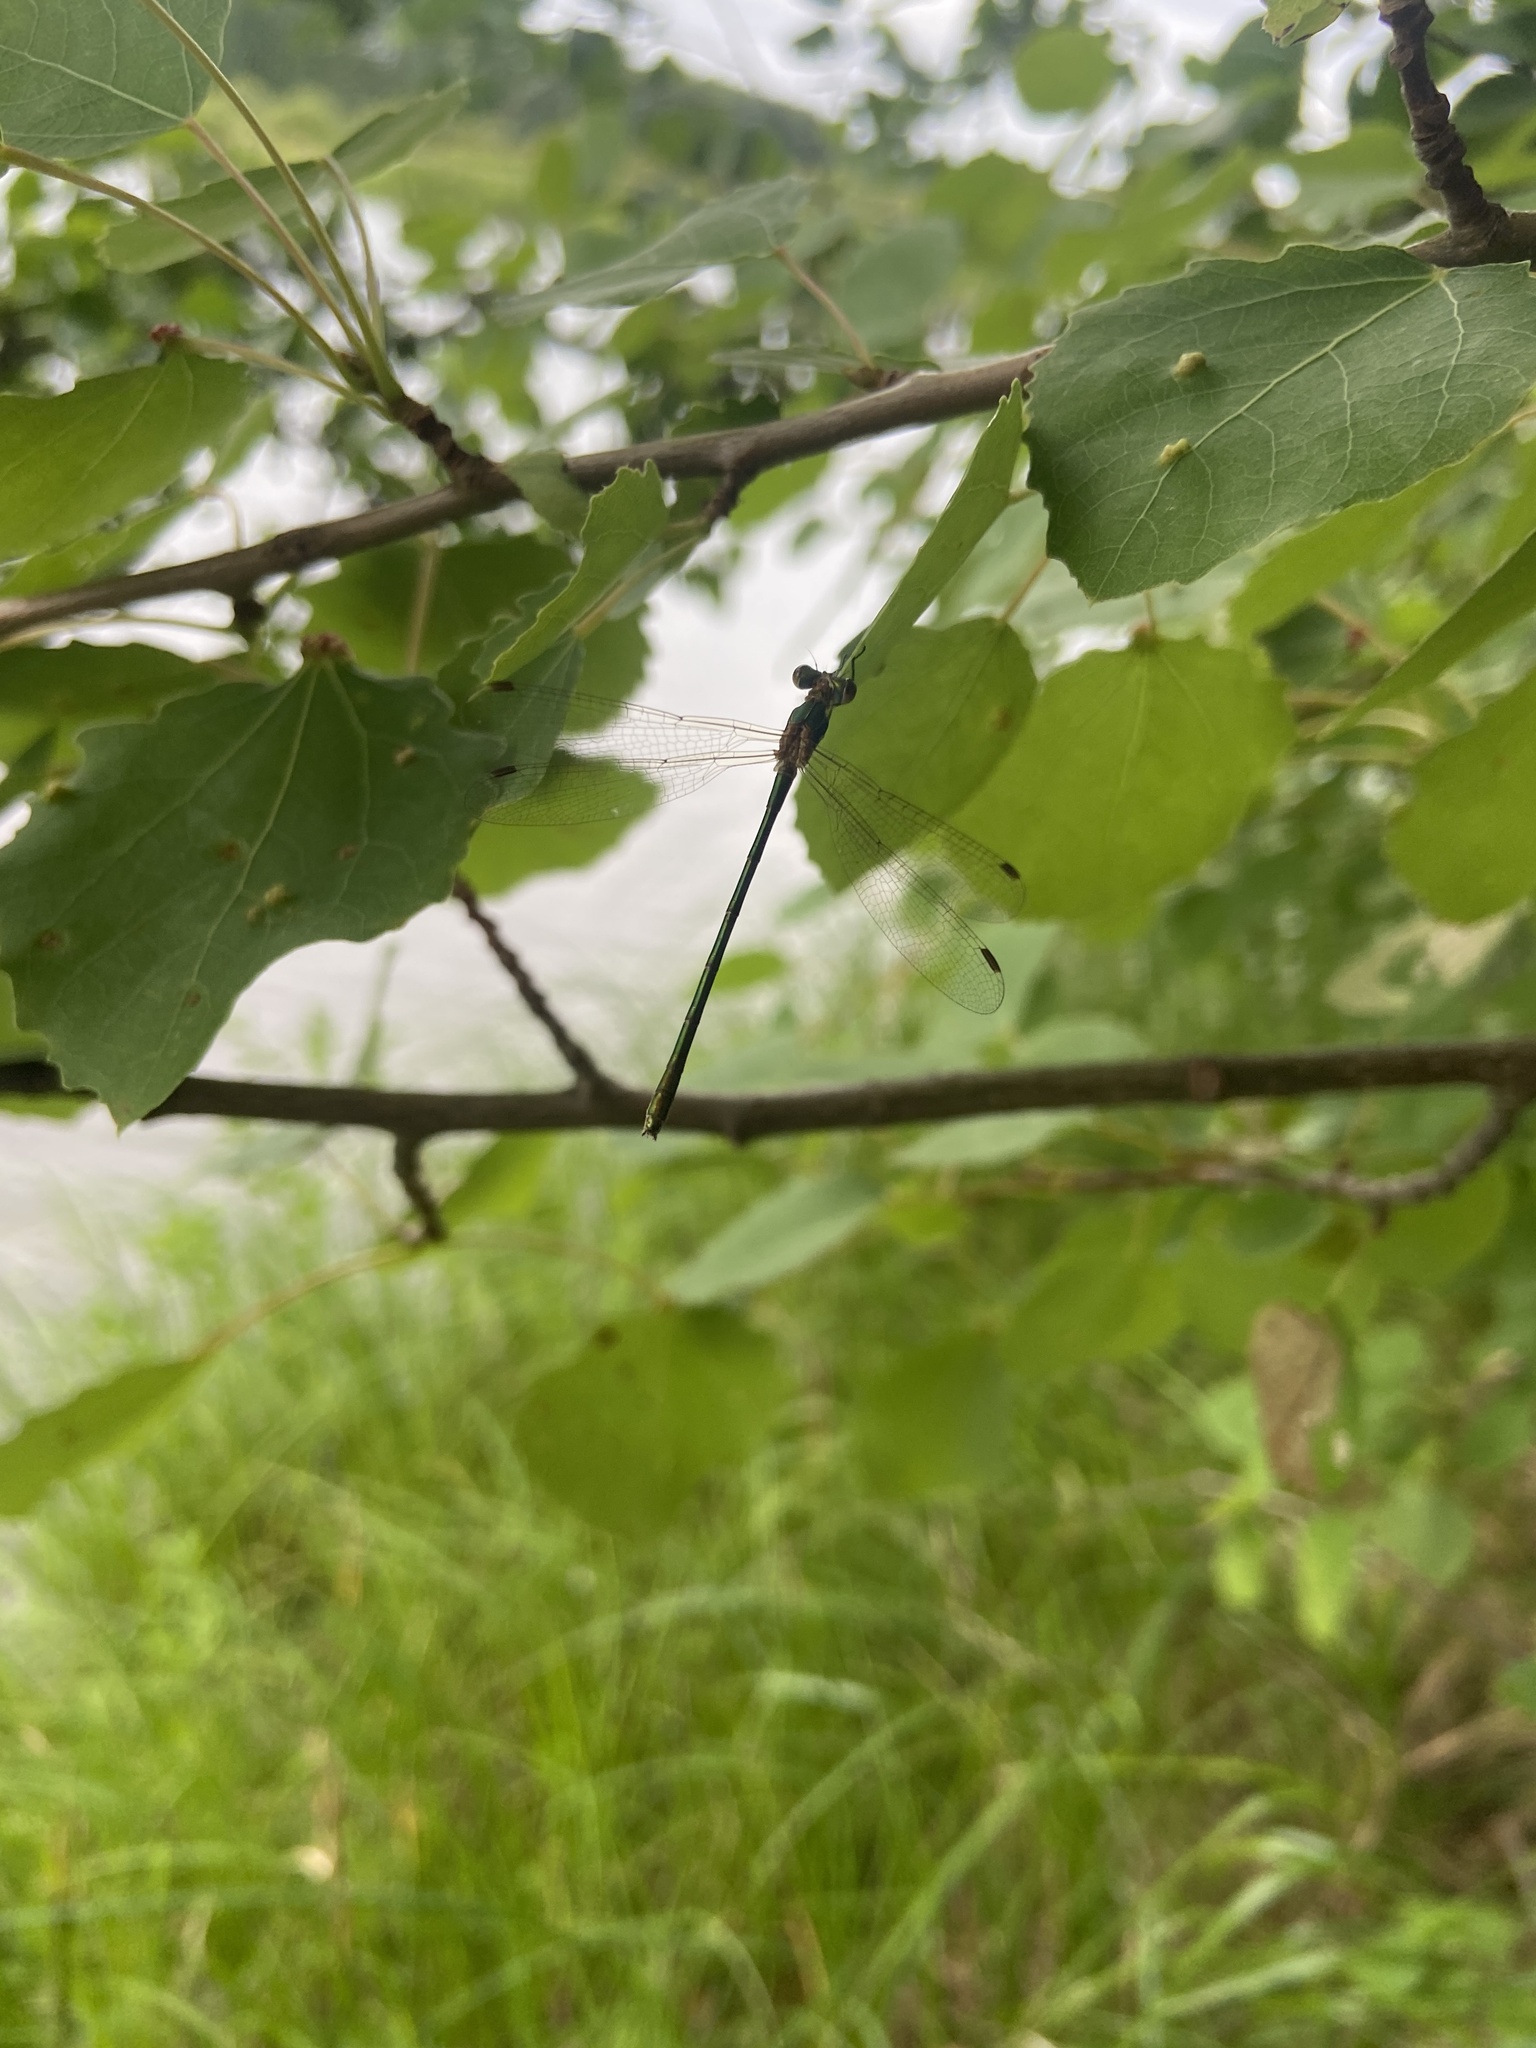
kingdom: Animalia
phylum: Arthropoda
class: Insecta
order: Odonata
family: Lestidae
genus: Lestes
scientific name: Lestes sponsa
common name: Common spreadwing
